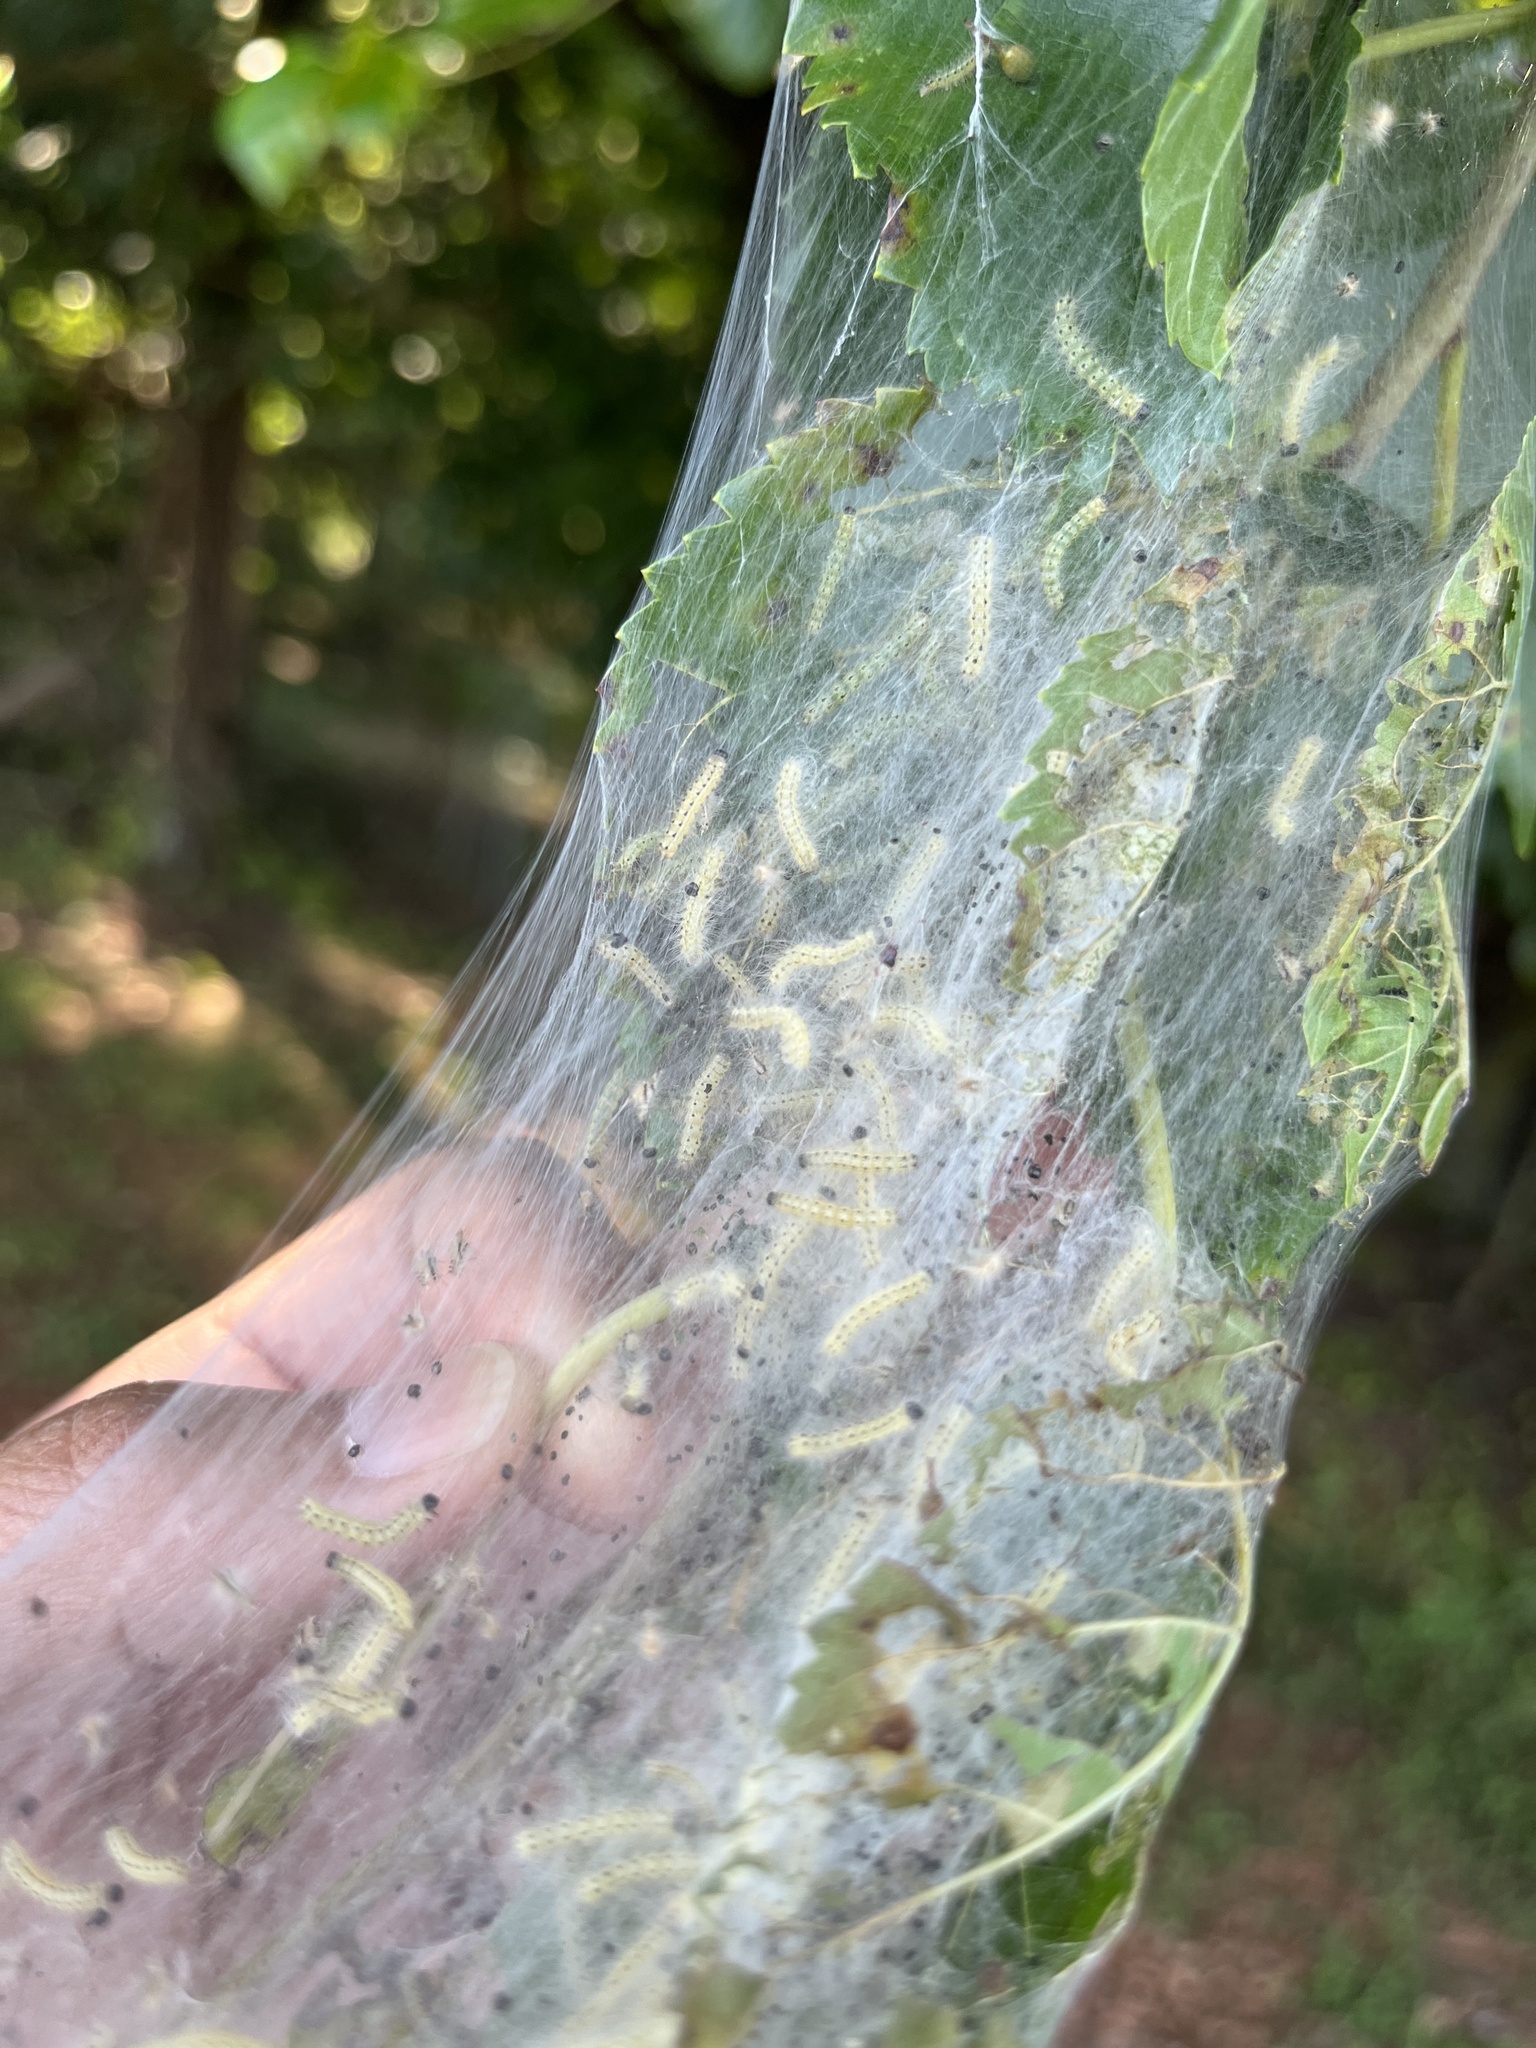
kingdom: Animalia
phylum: Arthropoda
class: Insecta
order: Lepidoptera
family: Erebidae
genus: Hyphantria
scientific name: Hyphantria cunea
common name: American white moth
